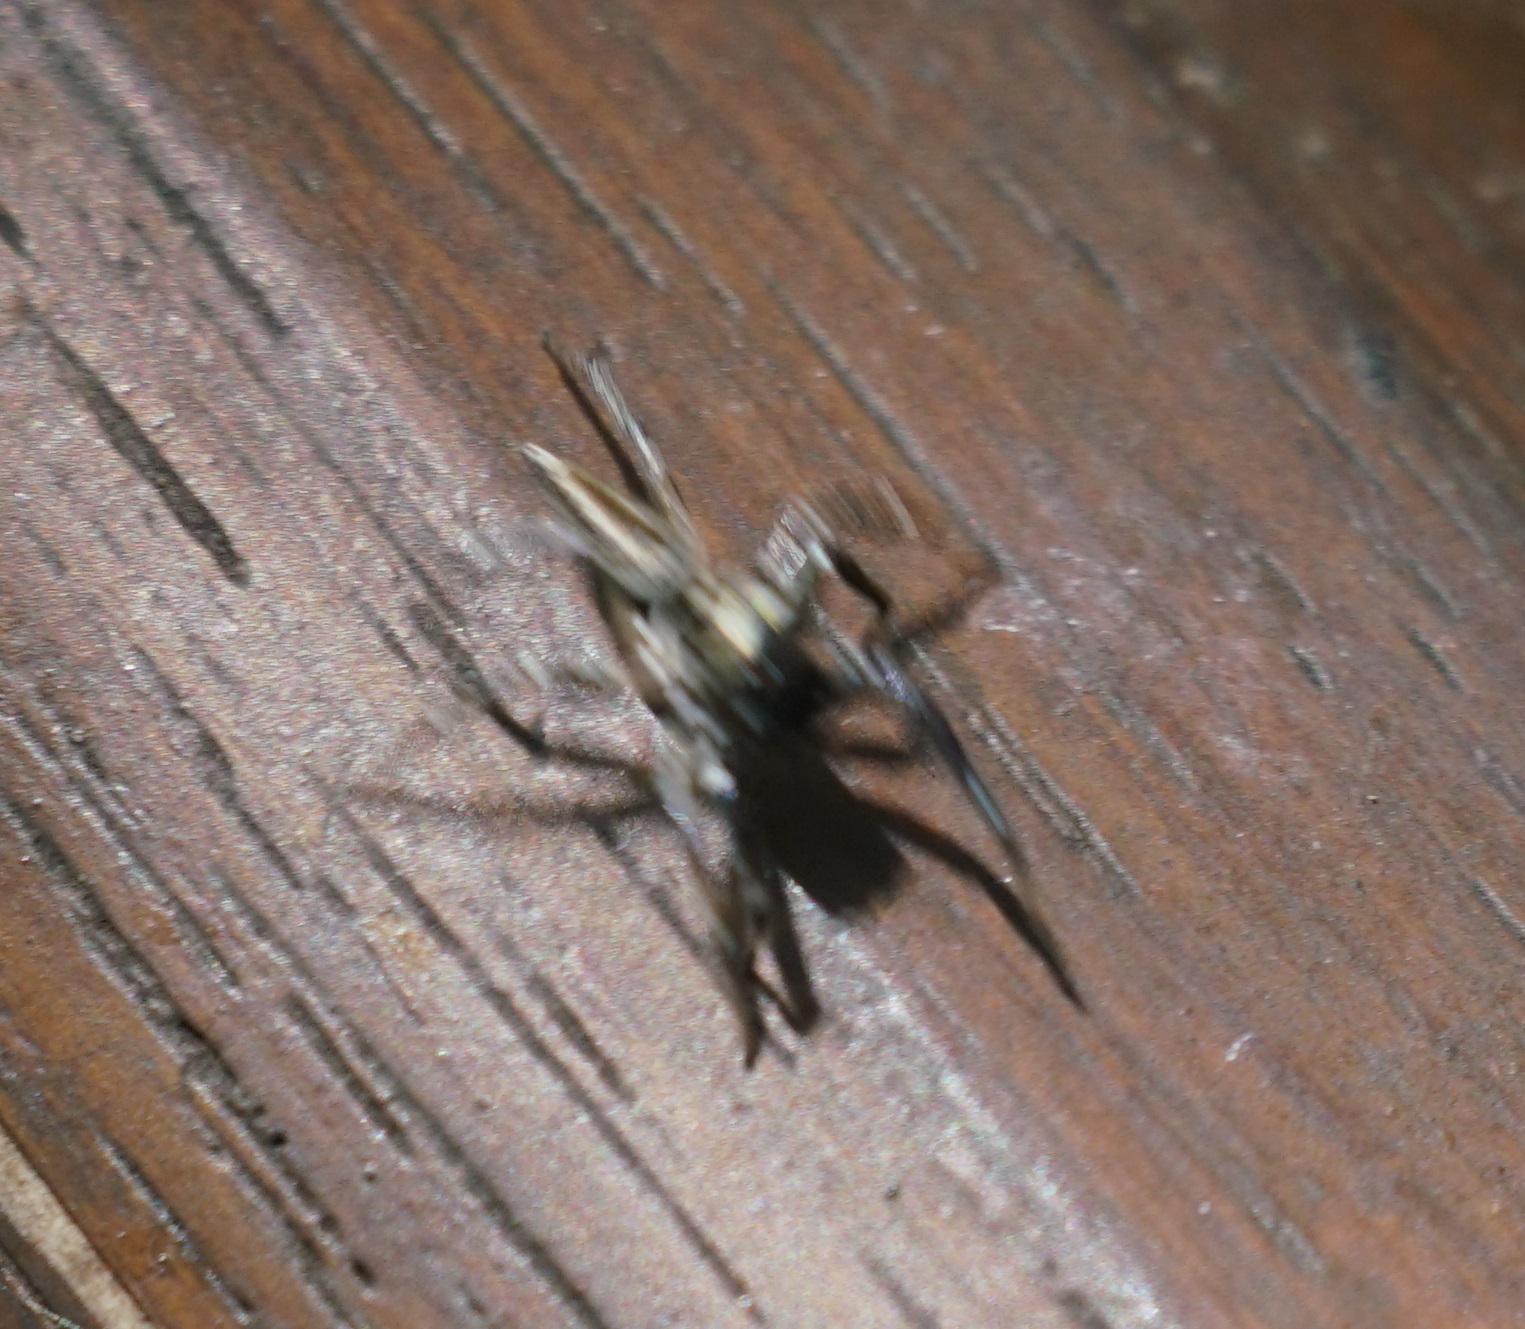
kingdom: Animalia
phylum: Arthropoda
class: Arachnida
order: Araneae
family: Salticidae
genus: Zenodorus
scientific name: Zenodorus swiftorum
